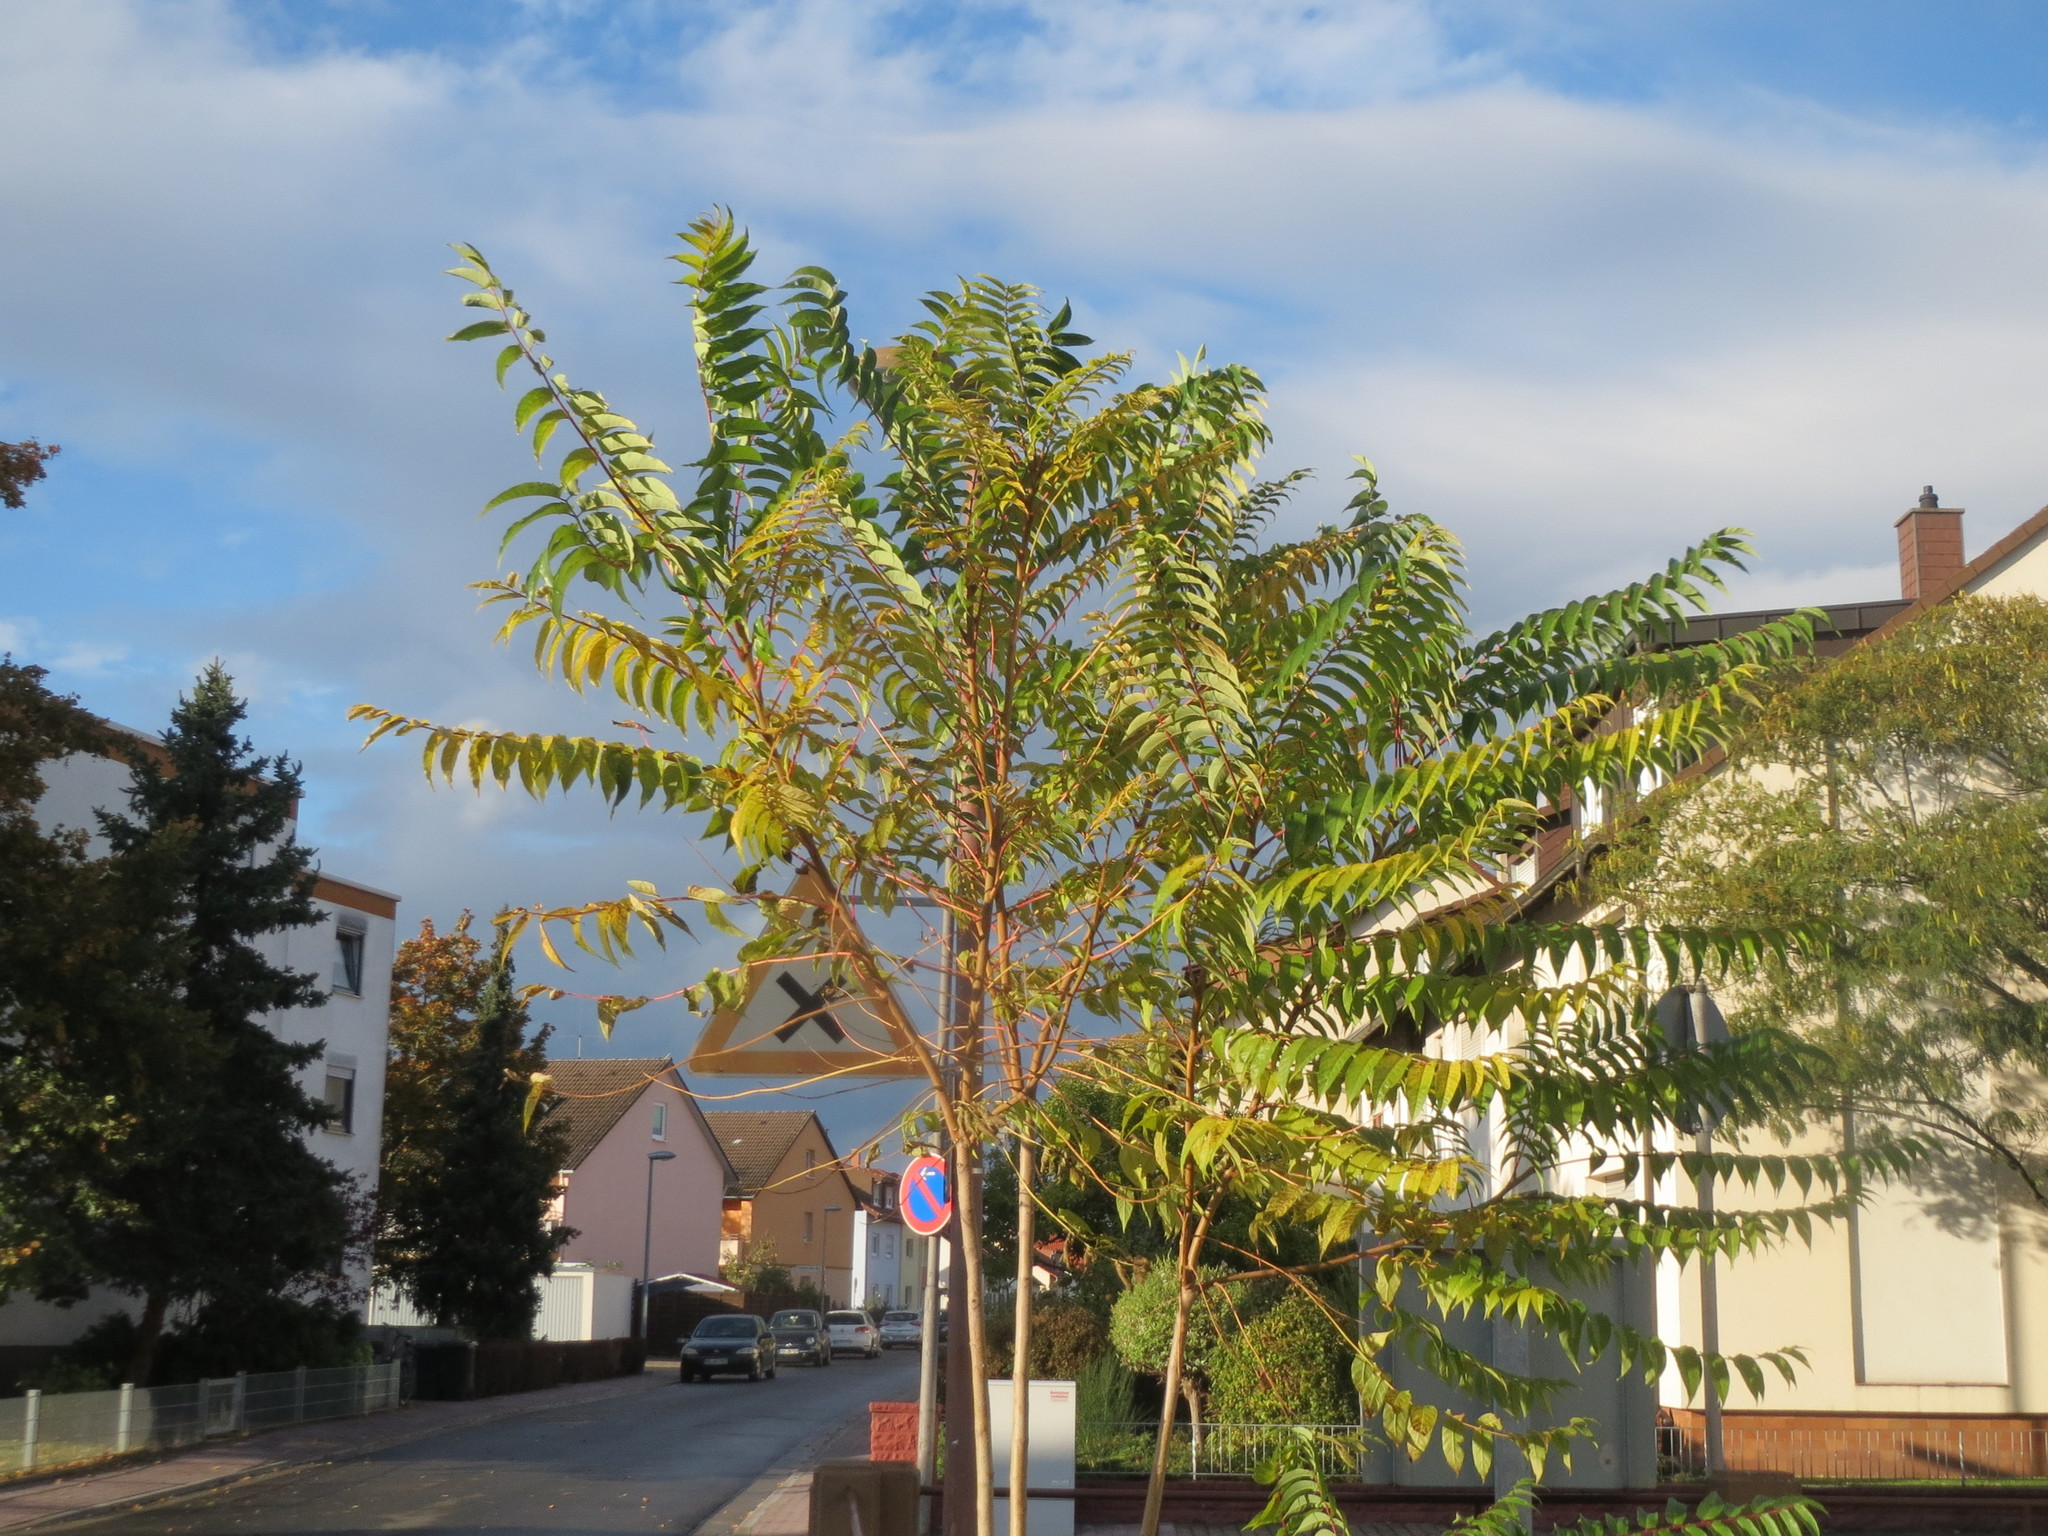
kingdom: Plantae
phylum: Tracheophyta
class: Magnoliopsida
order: Sapindales
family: Simaroubaceae
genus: Ailanthus
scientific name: Ailanthus altissima
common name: Tree-of-heaven
